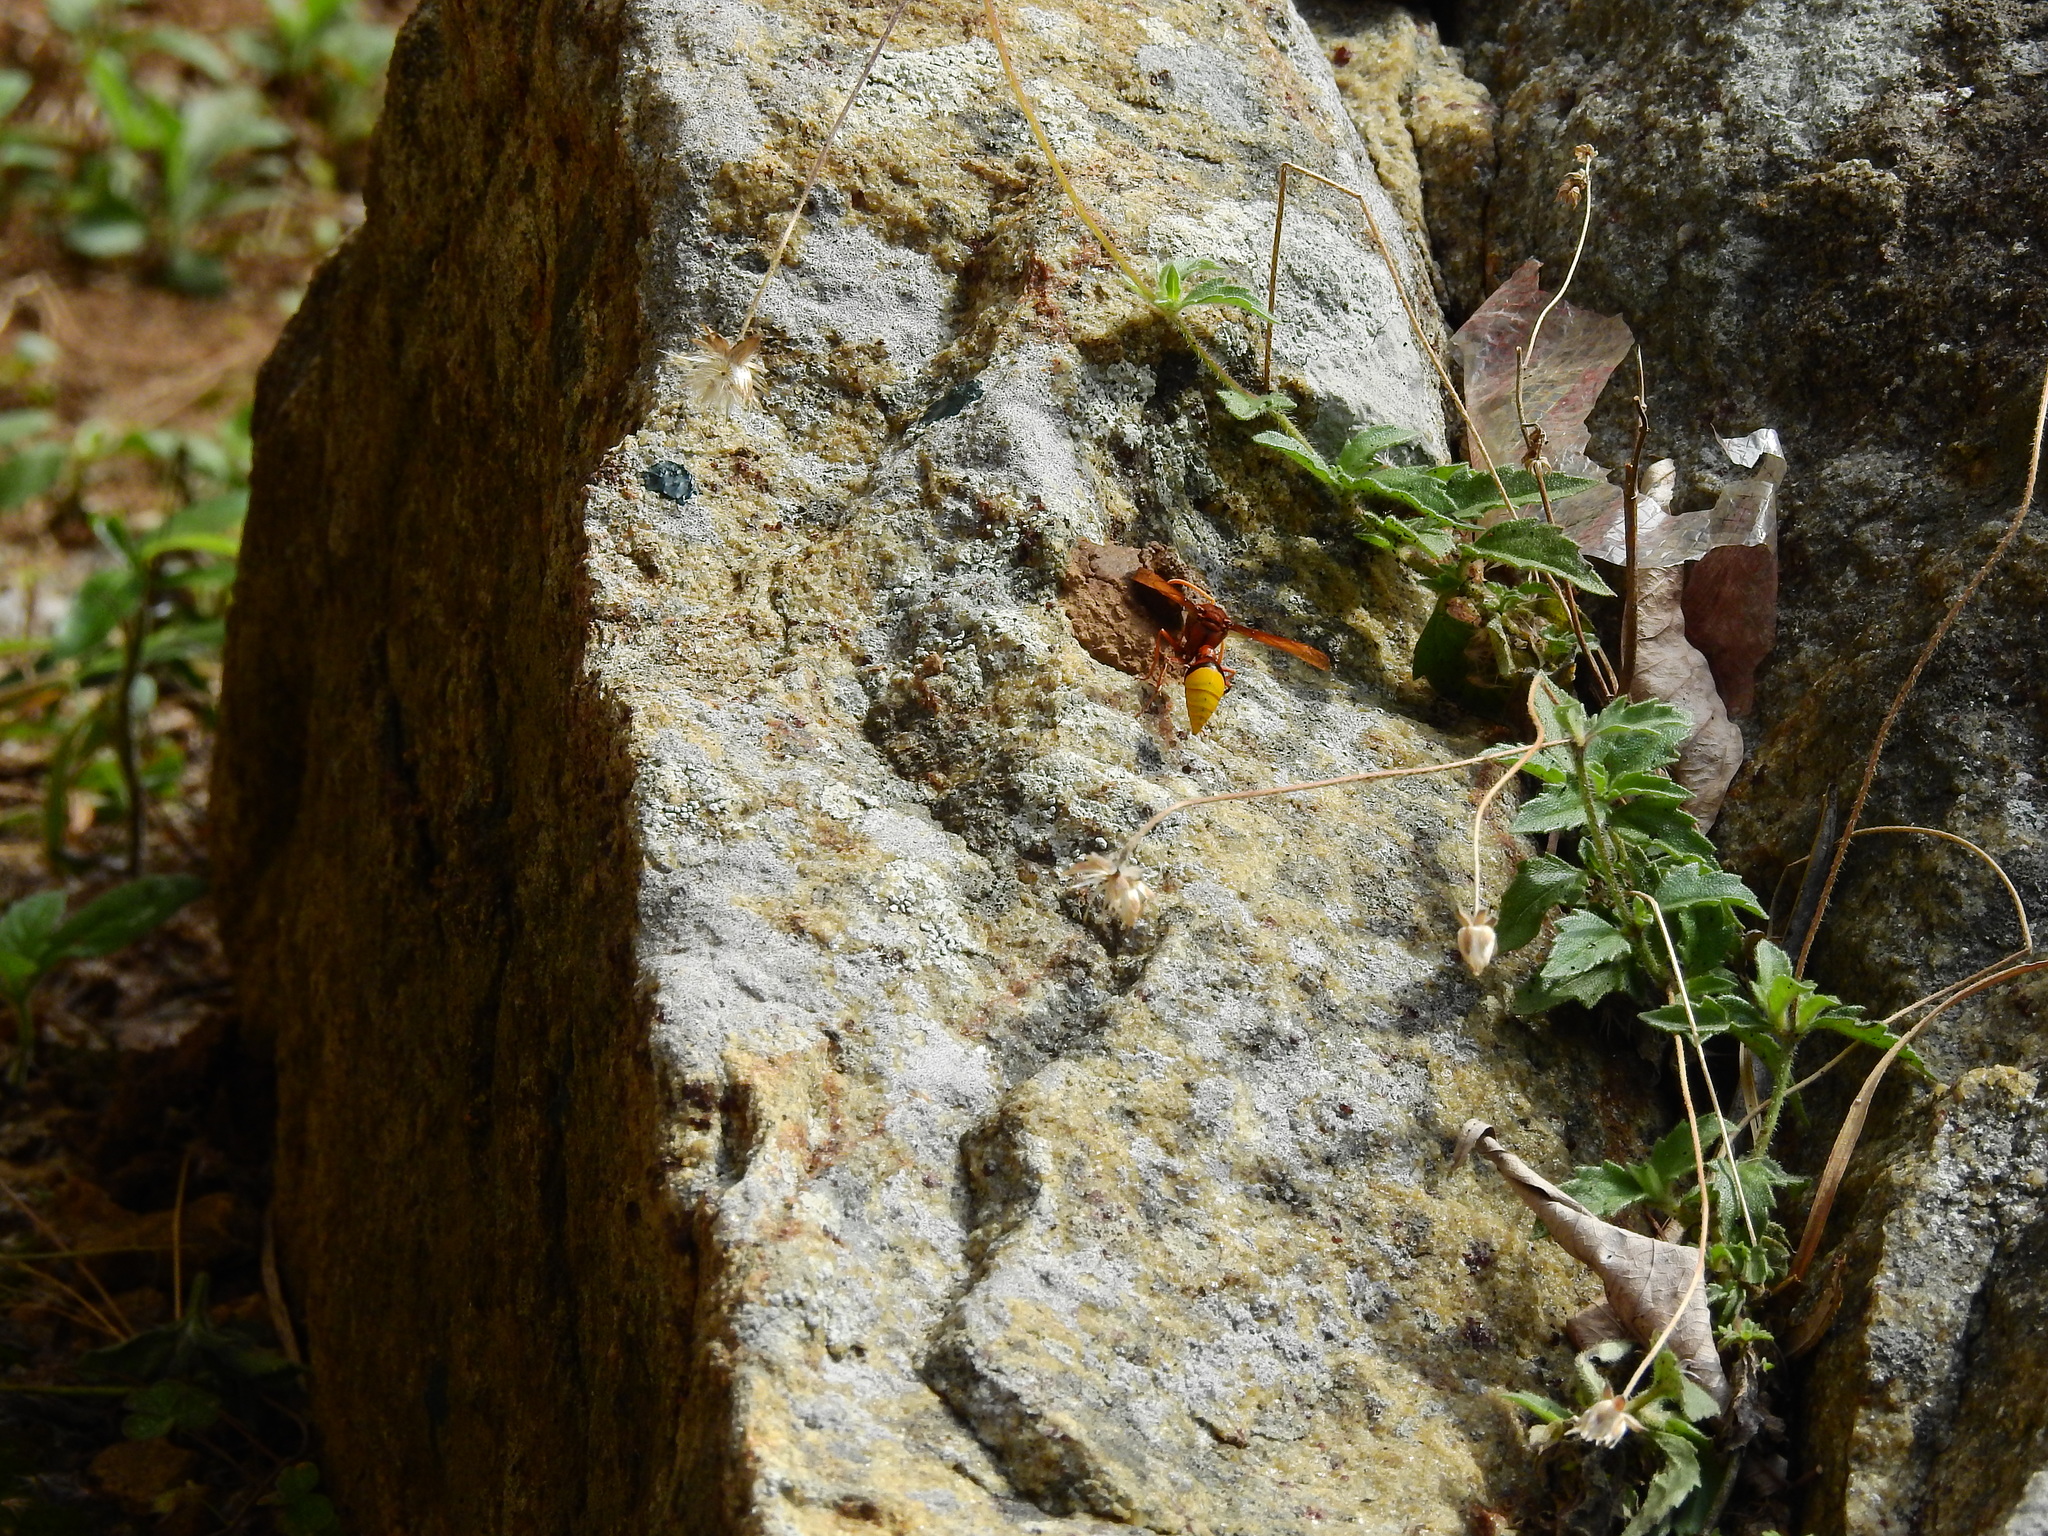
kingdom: Animalia
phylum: Arthropoda
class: Insecta
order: Hymenoptera
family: Eumenidae
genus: Delta
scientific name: Delta pyriforme
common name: Wasp
